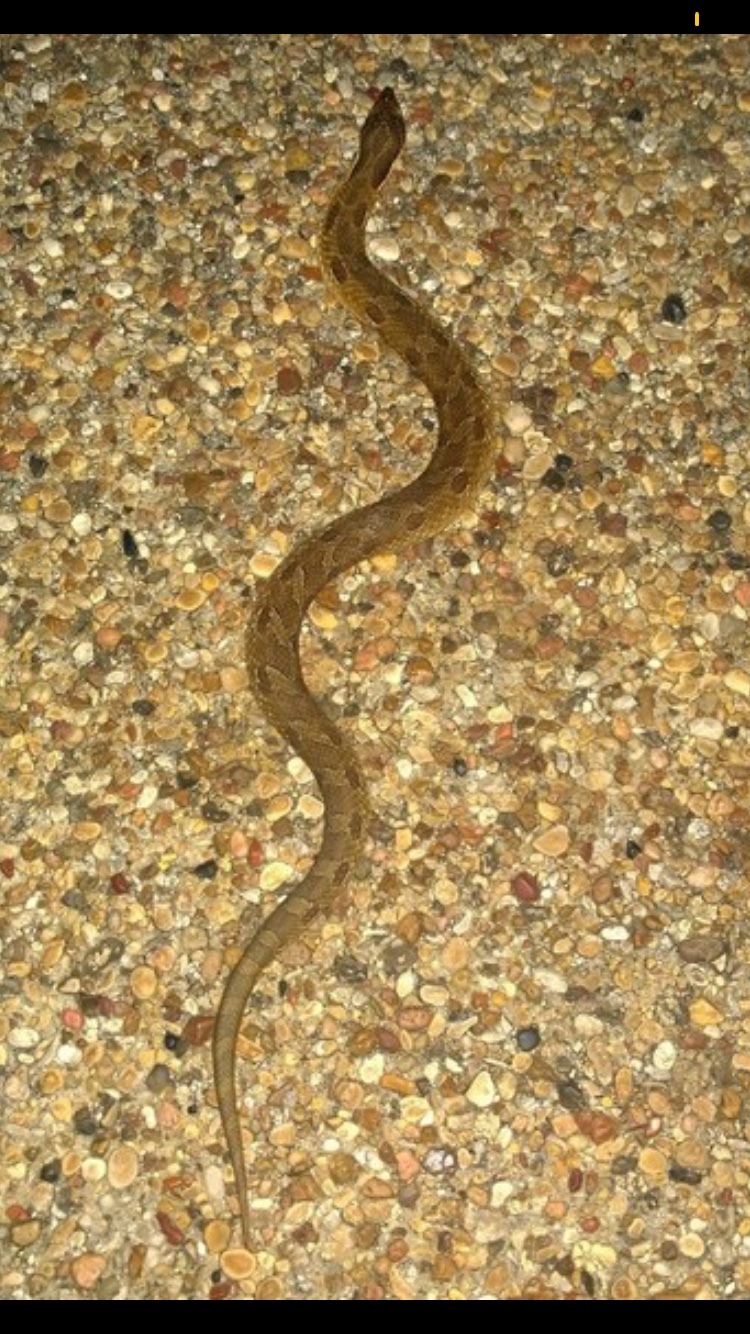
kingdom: Animalia
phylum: Chordata
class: Squamata
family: Colubridae
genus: Heterodon
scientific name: Heterodon platirhinos
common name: Eastern hognose snake
